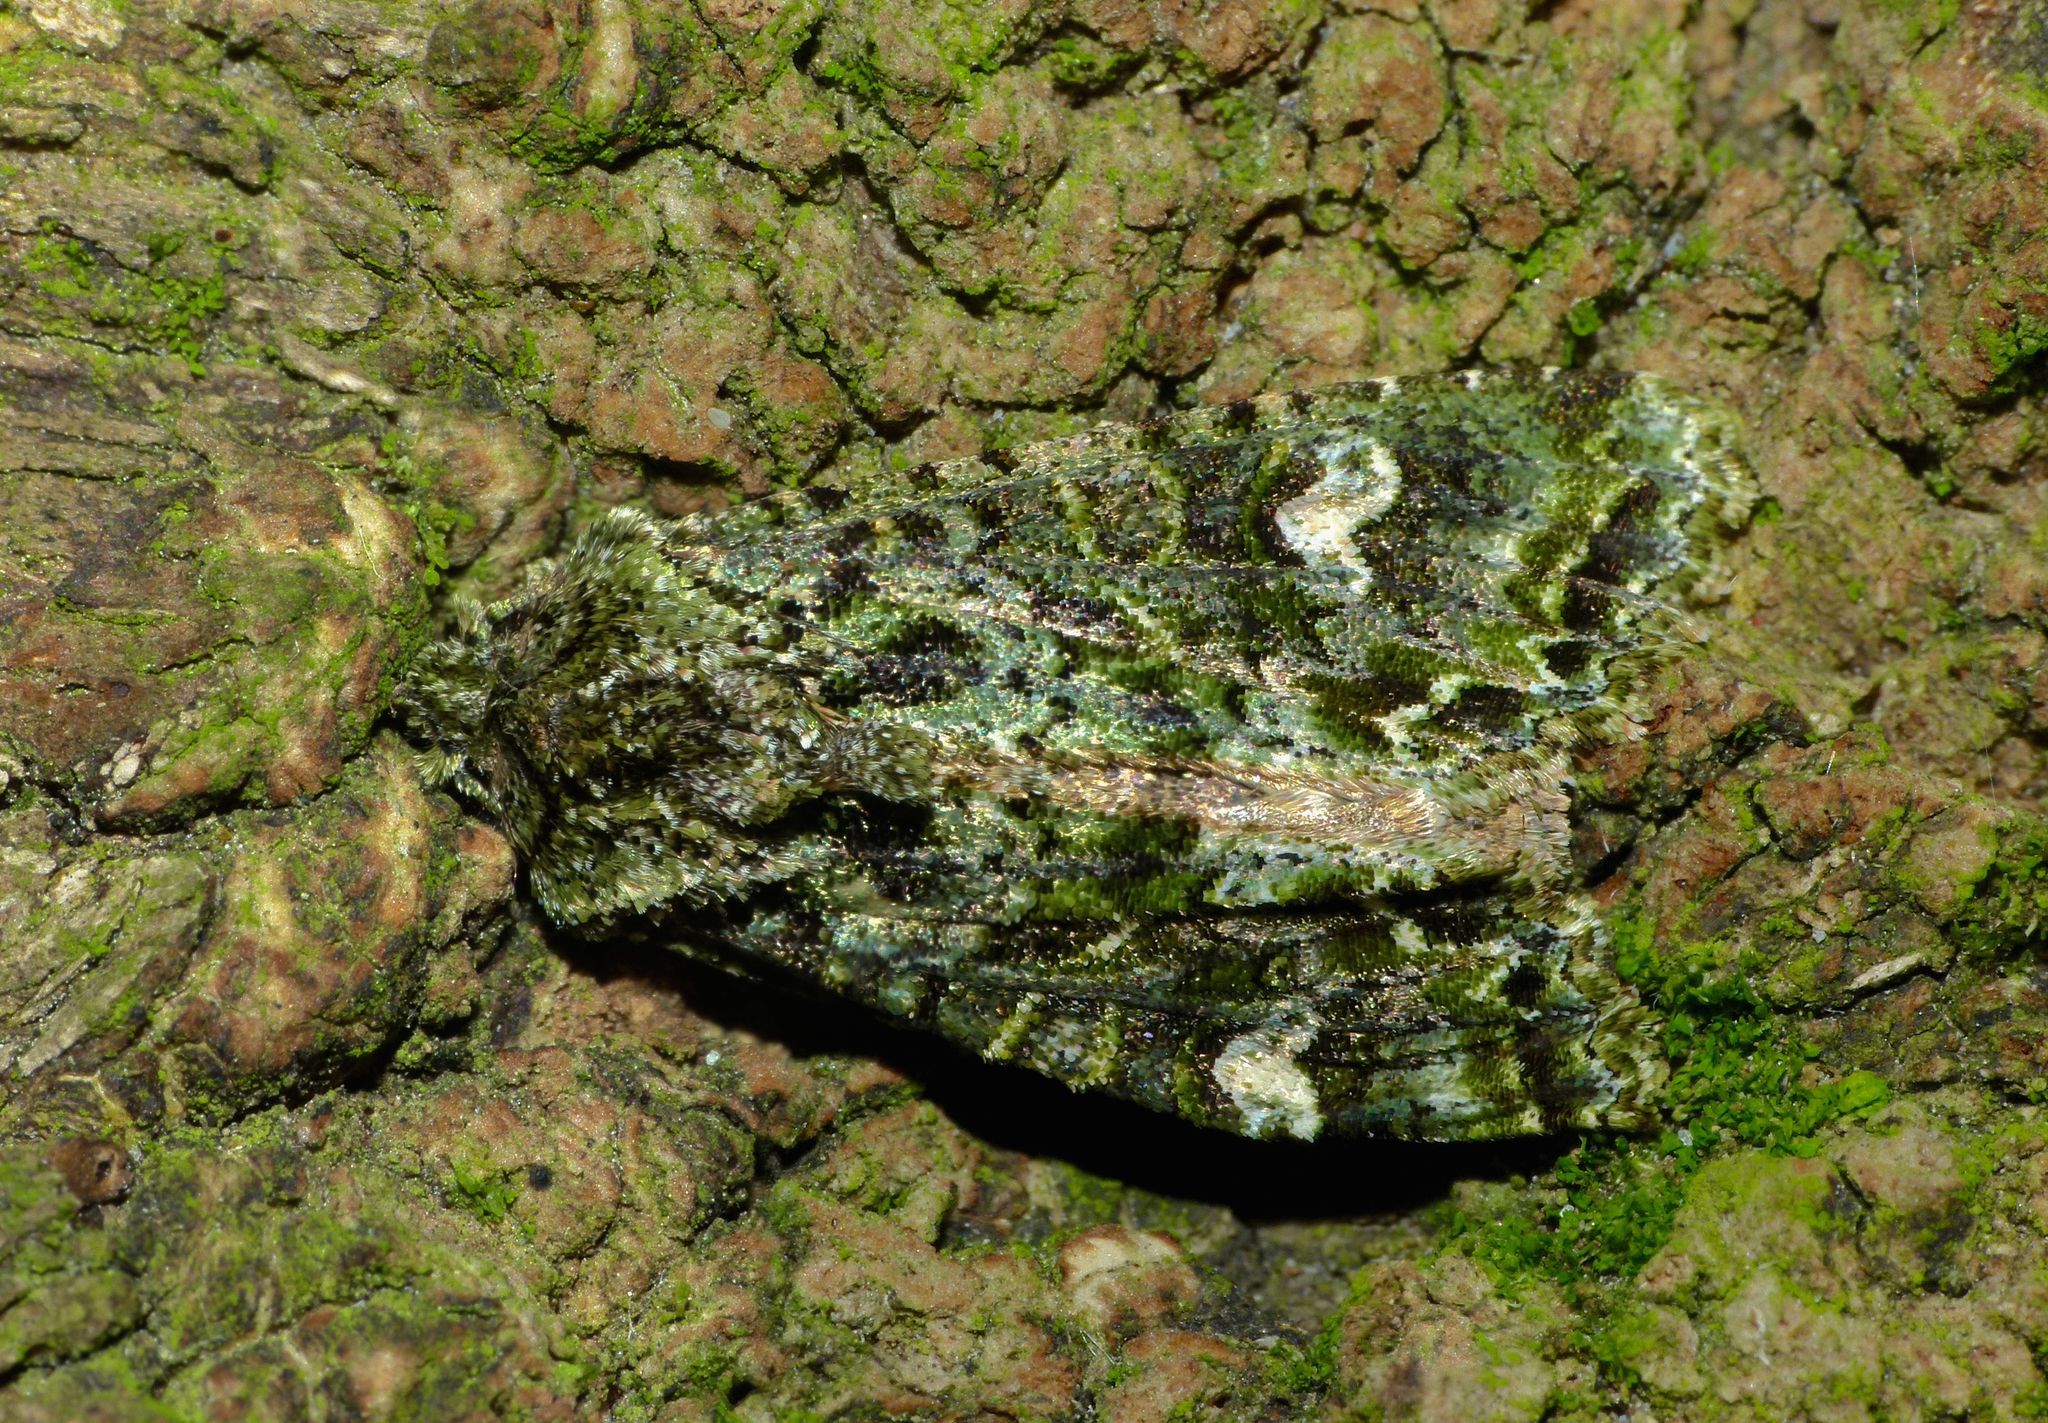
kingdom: Animalia
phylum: Arthropoda
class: Insecta
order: Lepidoptera
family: Noctuidae
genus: Ichneutica
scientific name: Ichneutica
